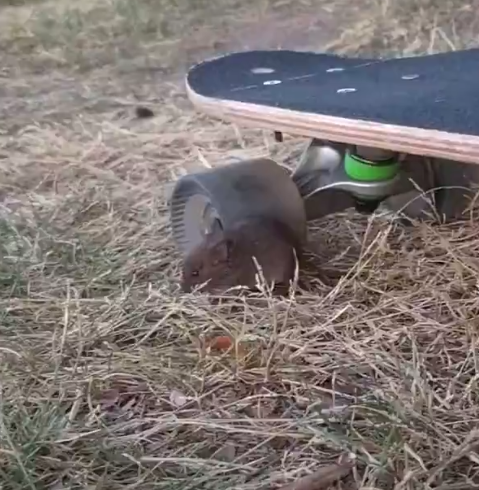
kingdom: Animalia
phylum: Chordata
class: Mammalia
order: Rodentia
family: Cricetidae
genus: Microtus
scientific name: Microtus pennsylvanicus
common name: Meadow vole
